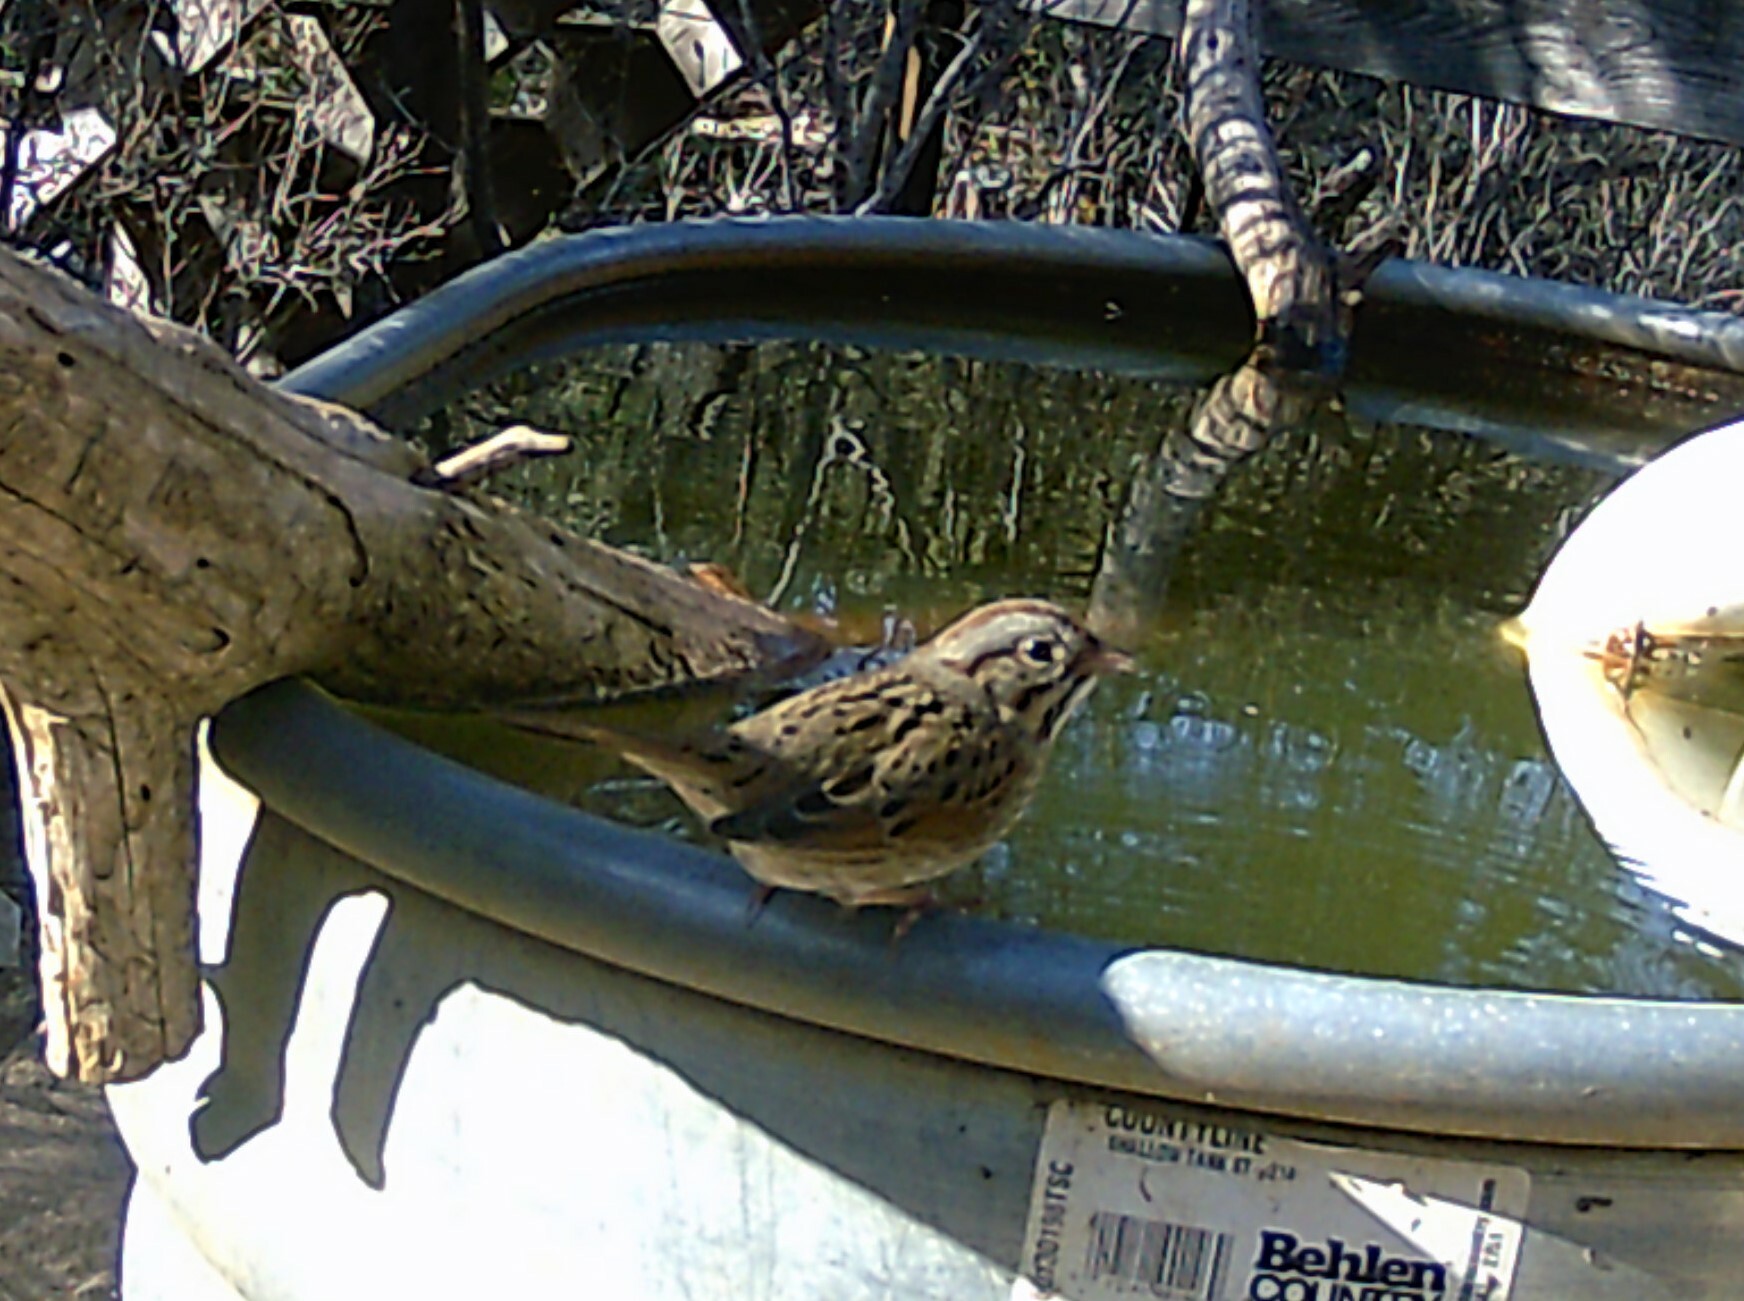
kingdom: Animalia
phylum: Chordata
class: Aves
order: Passeriformes
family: Passerellidae
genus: Melospiza
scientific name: Melospiza lincolnii
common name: Lincoln's sparrow
